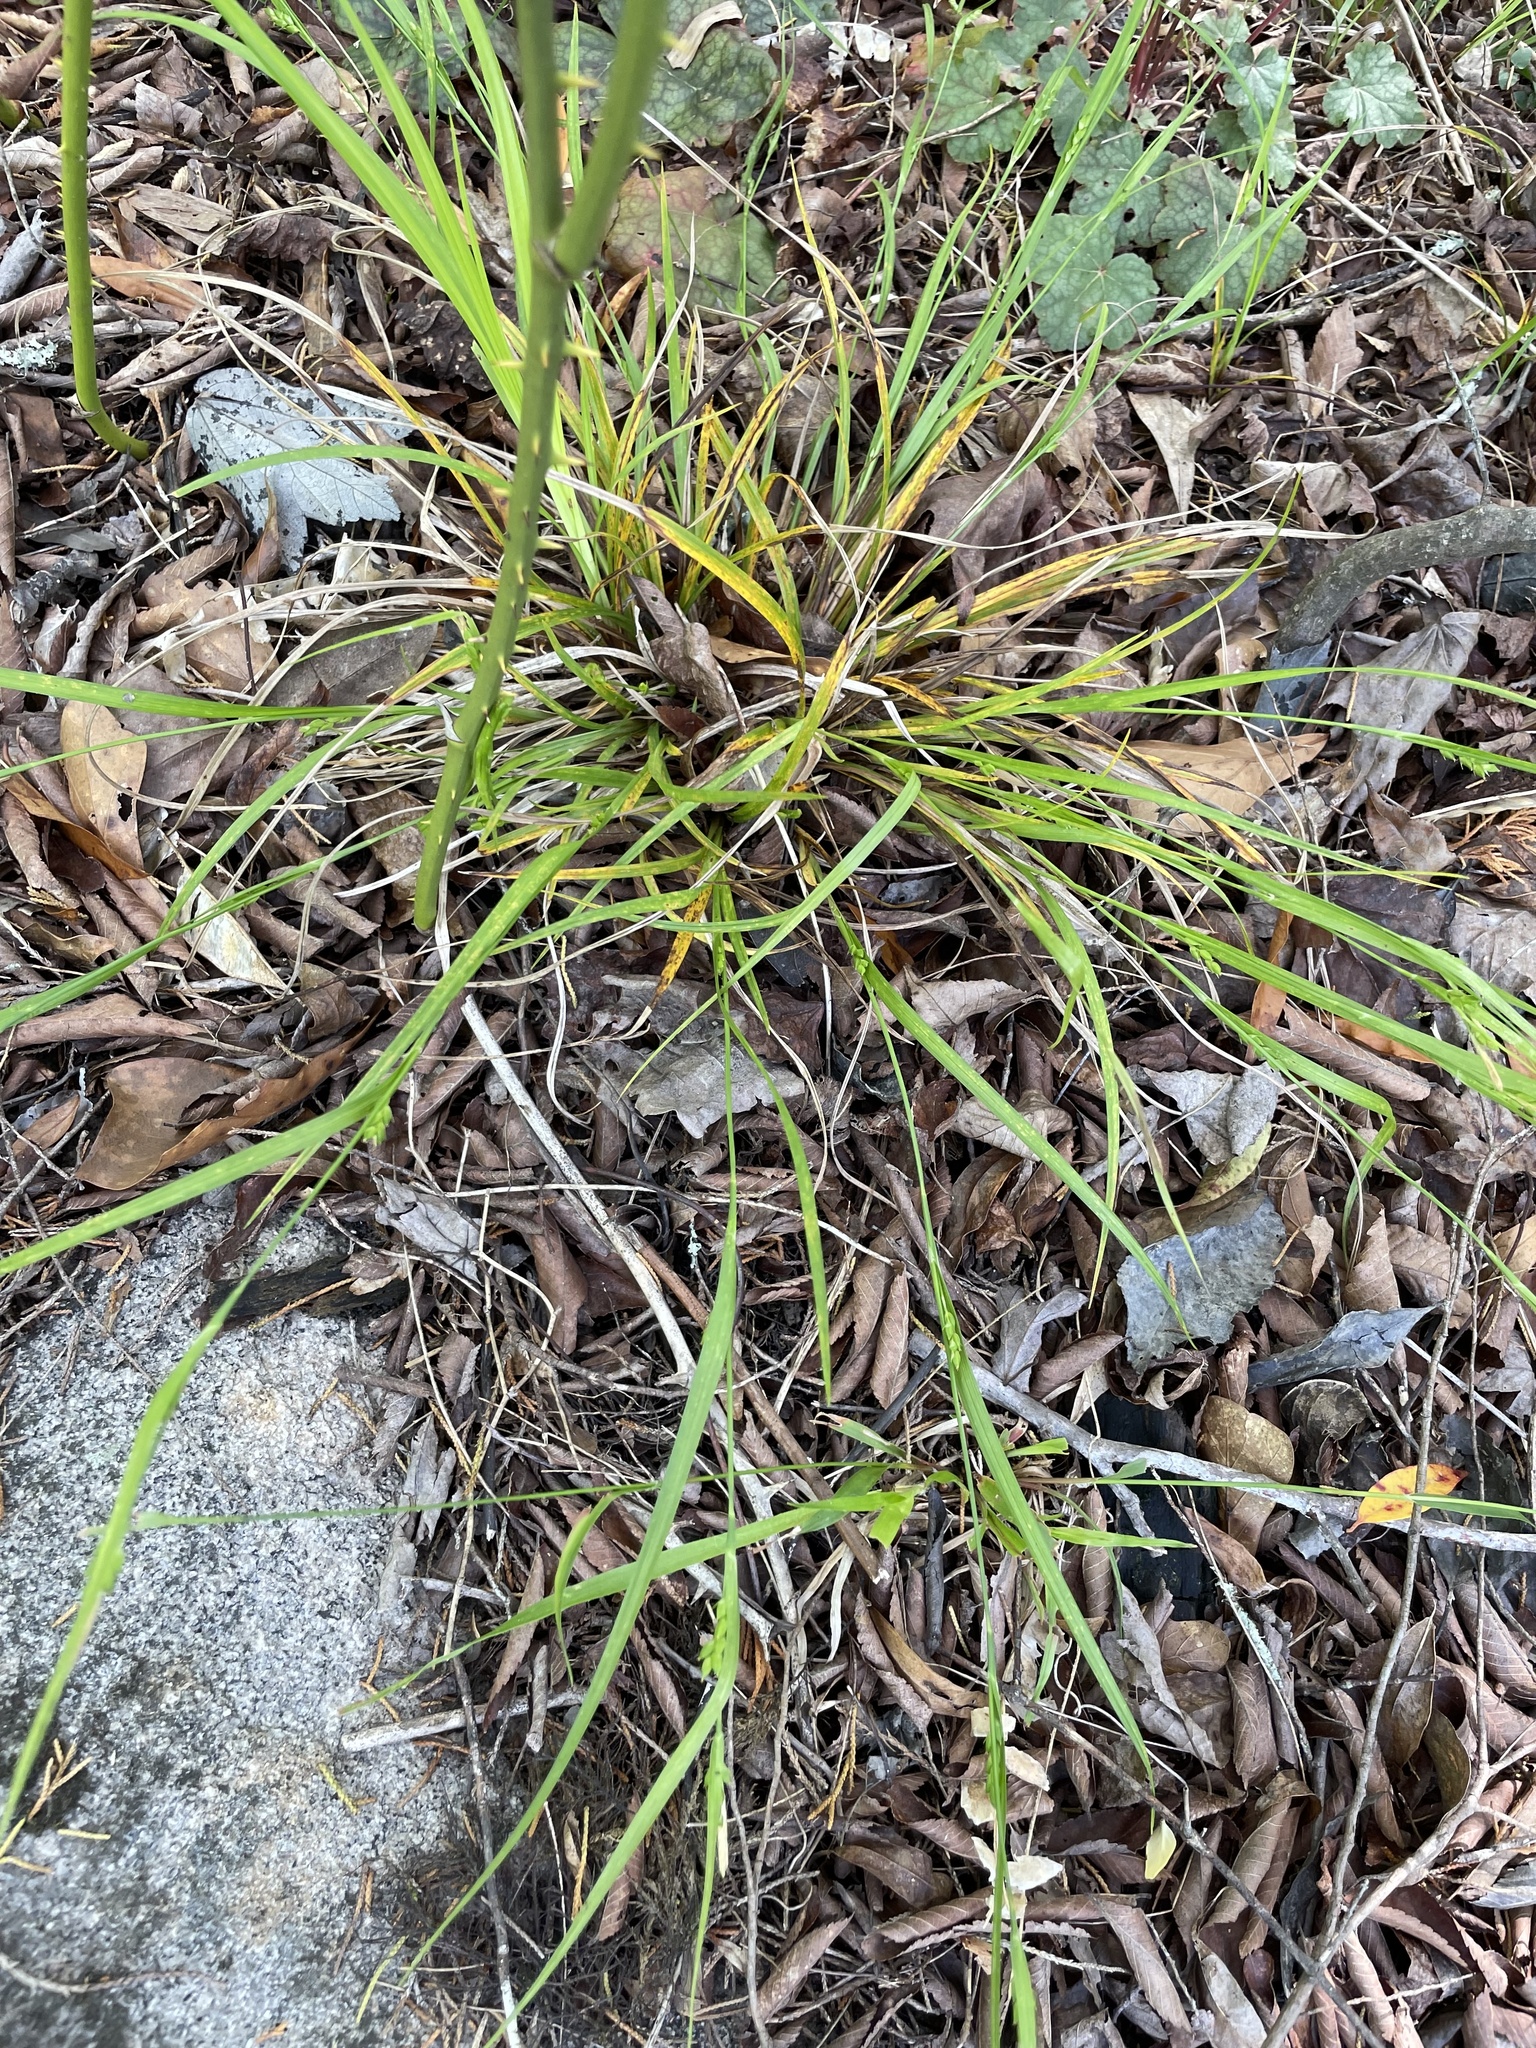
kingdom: Plantae
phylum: Tracheophyta
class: Liliopsida
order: Poales
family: Cyperaceae
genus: Carex
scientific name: Carex amphibola
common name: Amphibious sedge
